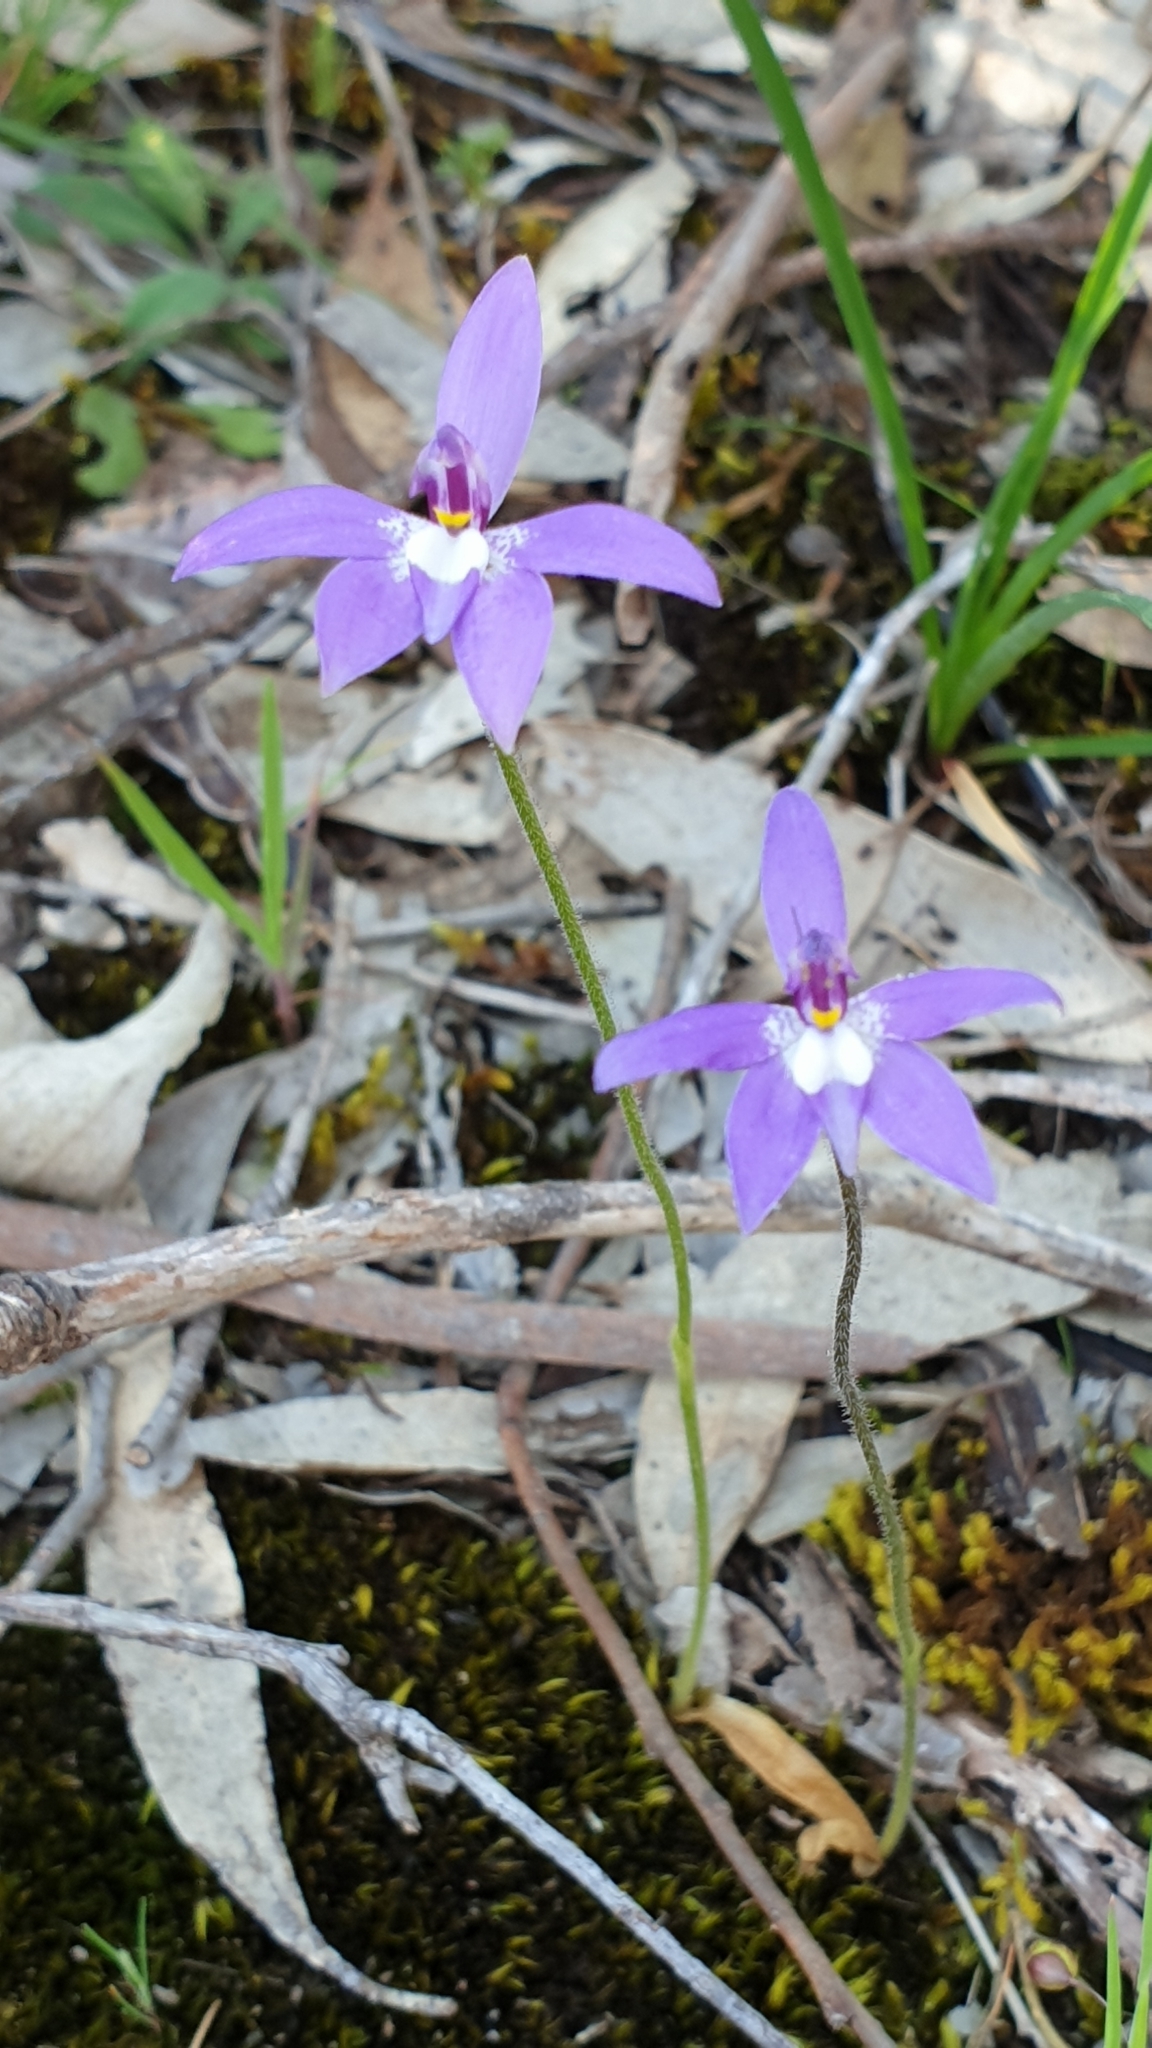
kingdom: Plantae
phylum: Tracheophyta
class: Liliopsida
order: Asparagales
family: Orchidaceae
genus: Caladenia
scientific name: Caladenia major
